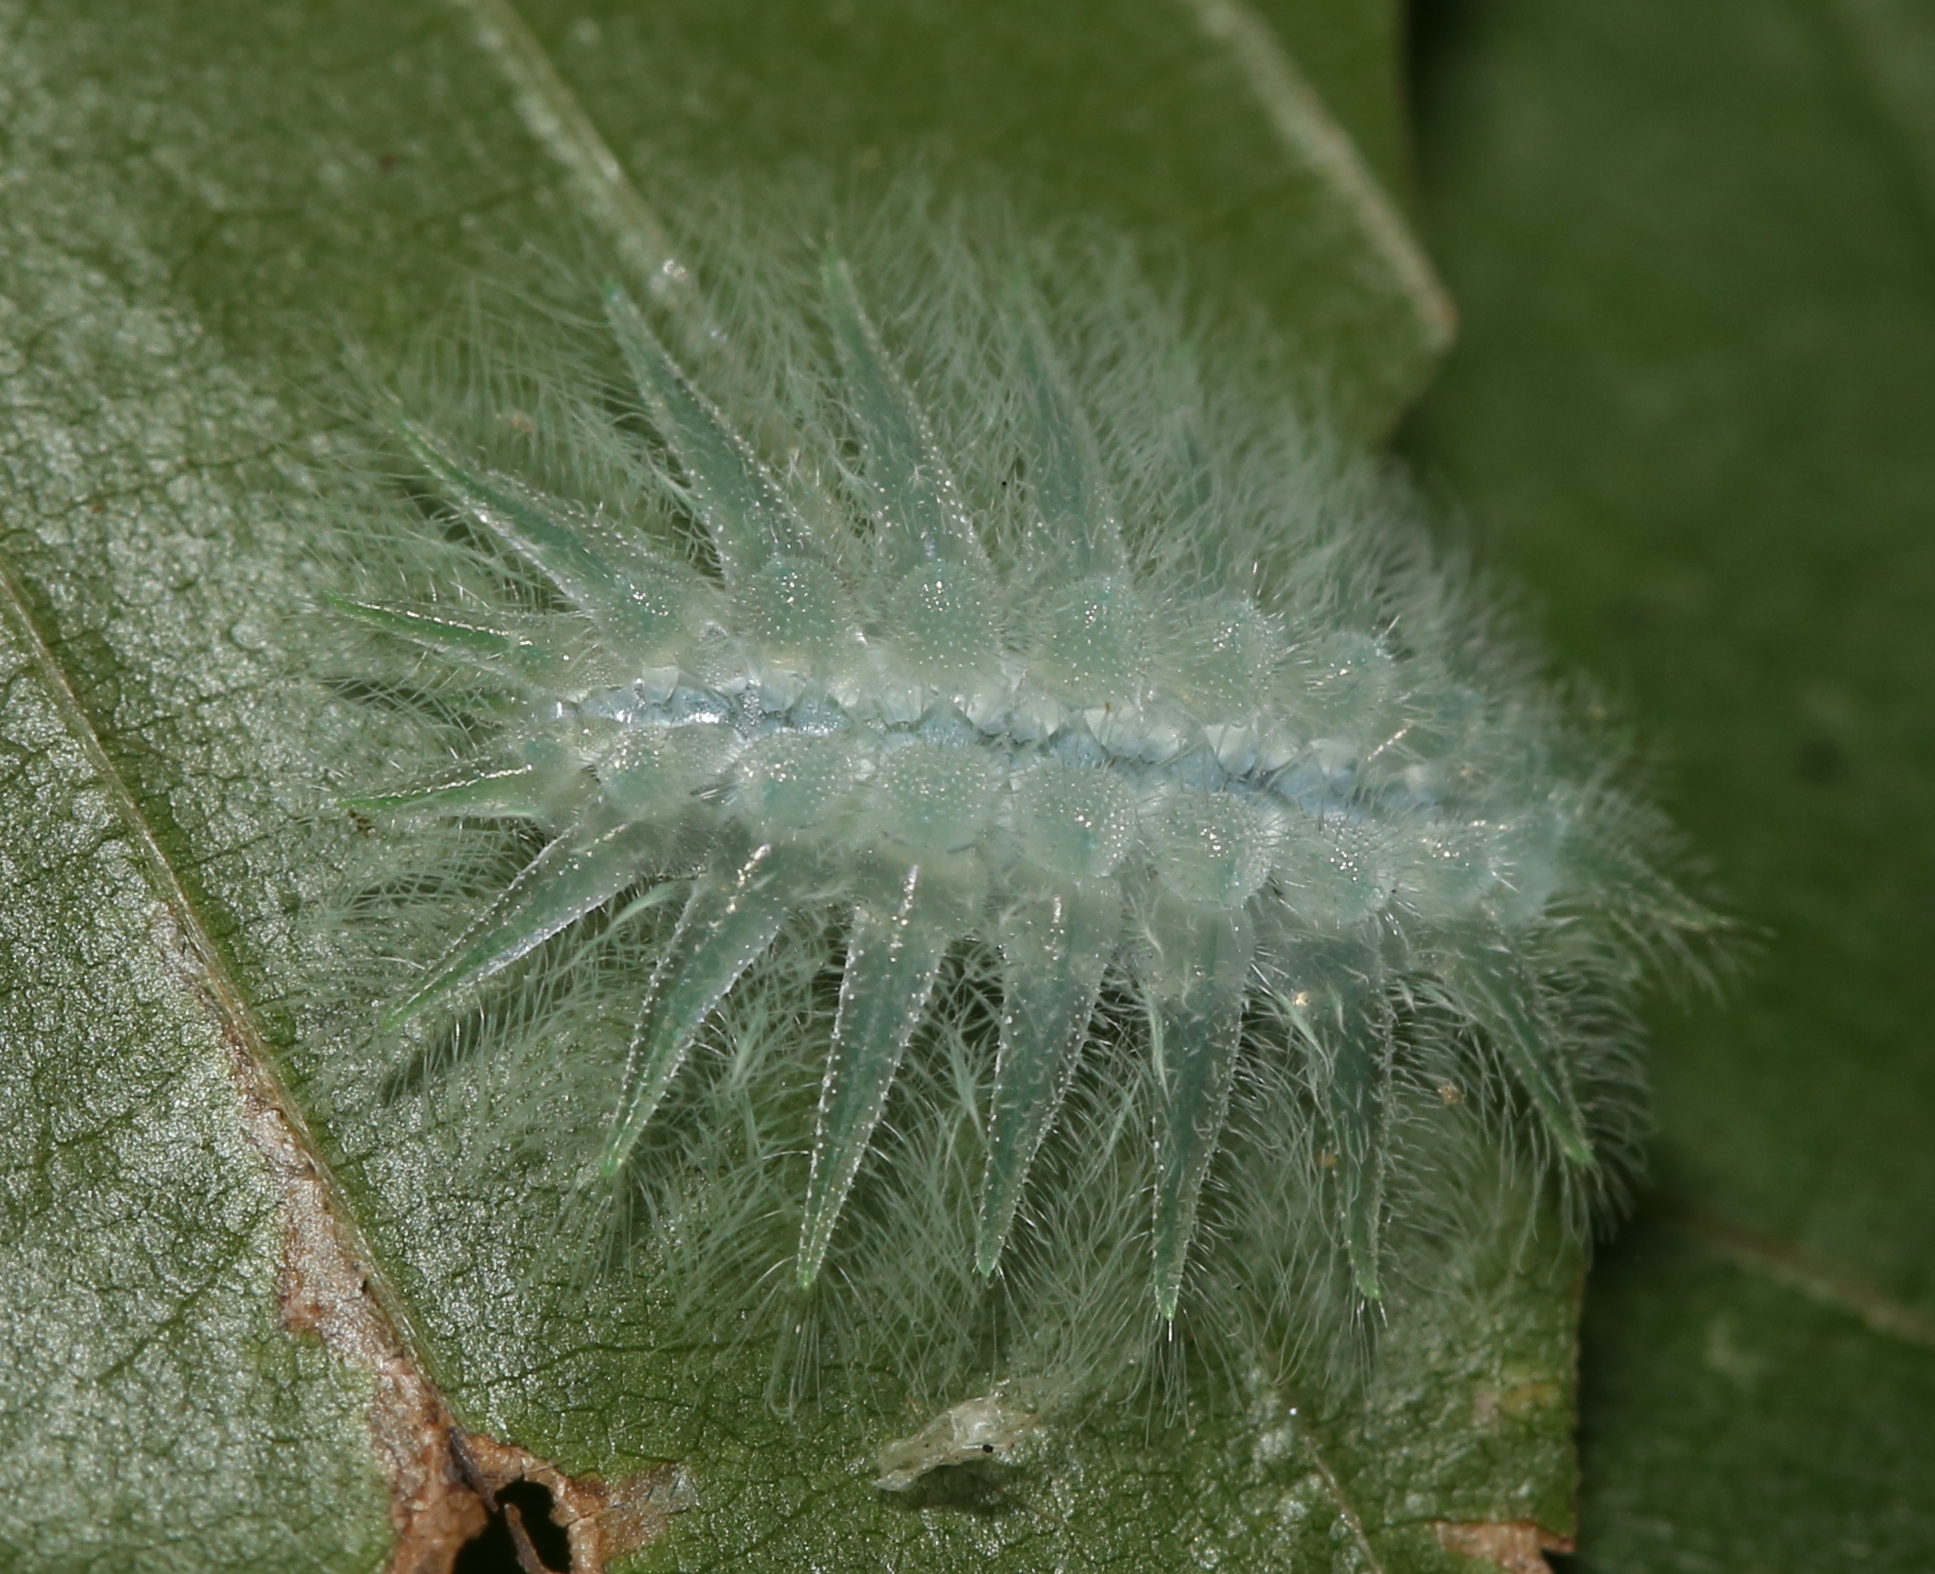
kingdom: Animalia
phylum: Arthropoda
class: Insecta
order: Lepidoptera
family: Limacodidae
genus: Isochaetes
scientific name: Isochaetes beutenmuelleri
